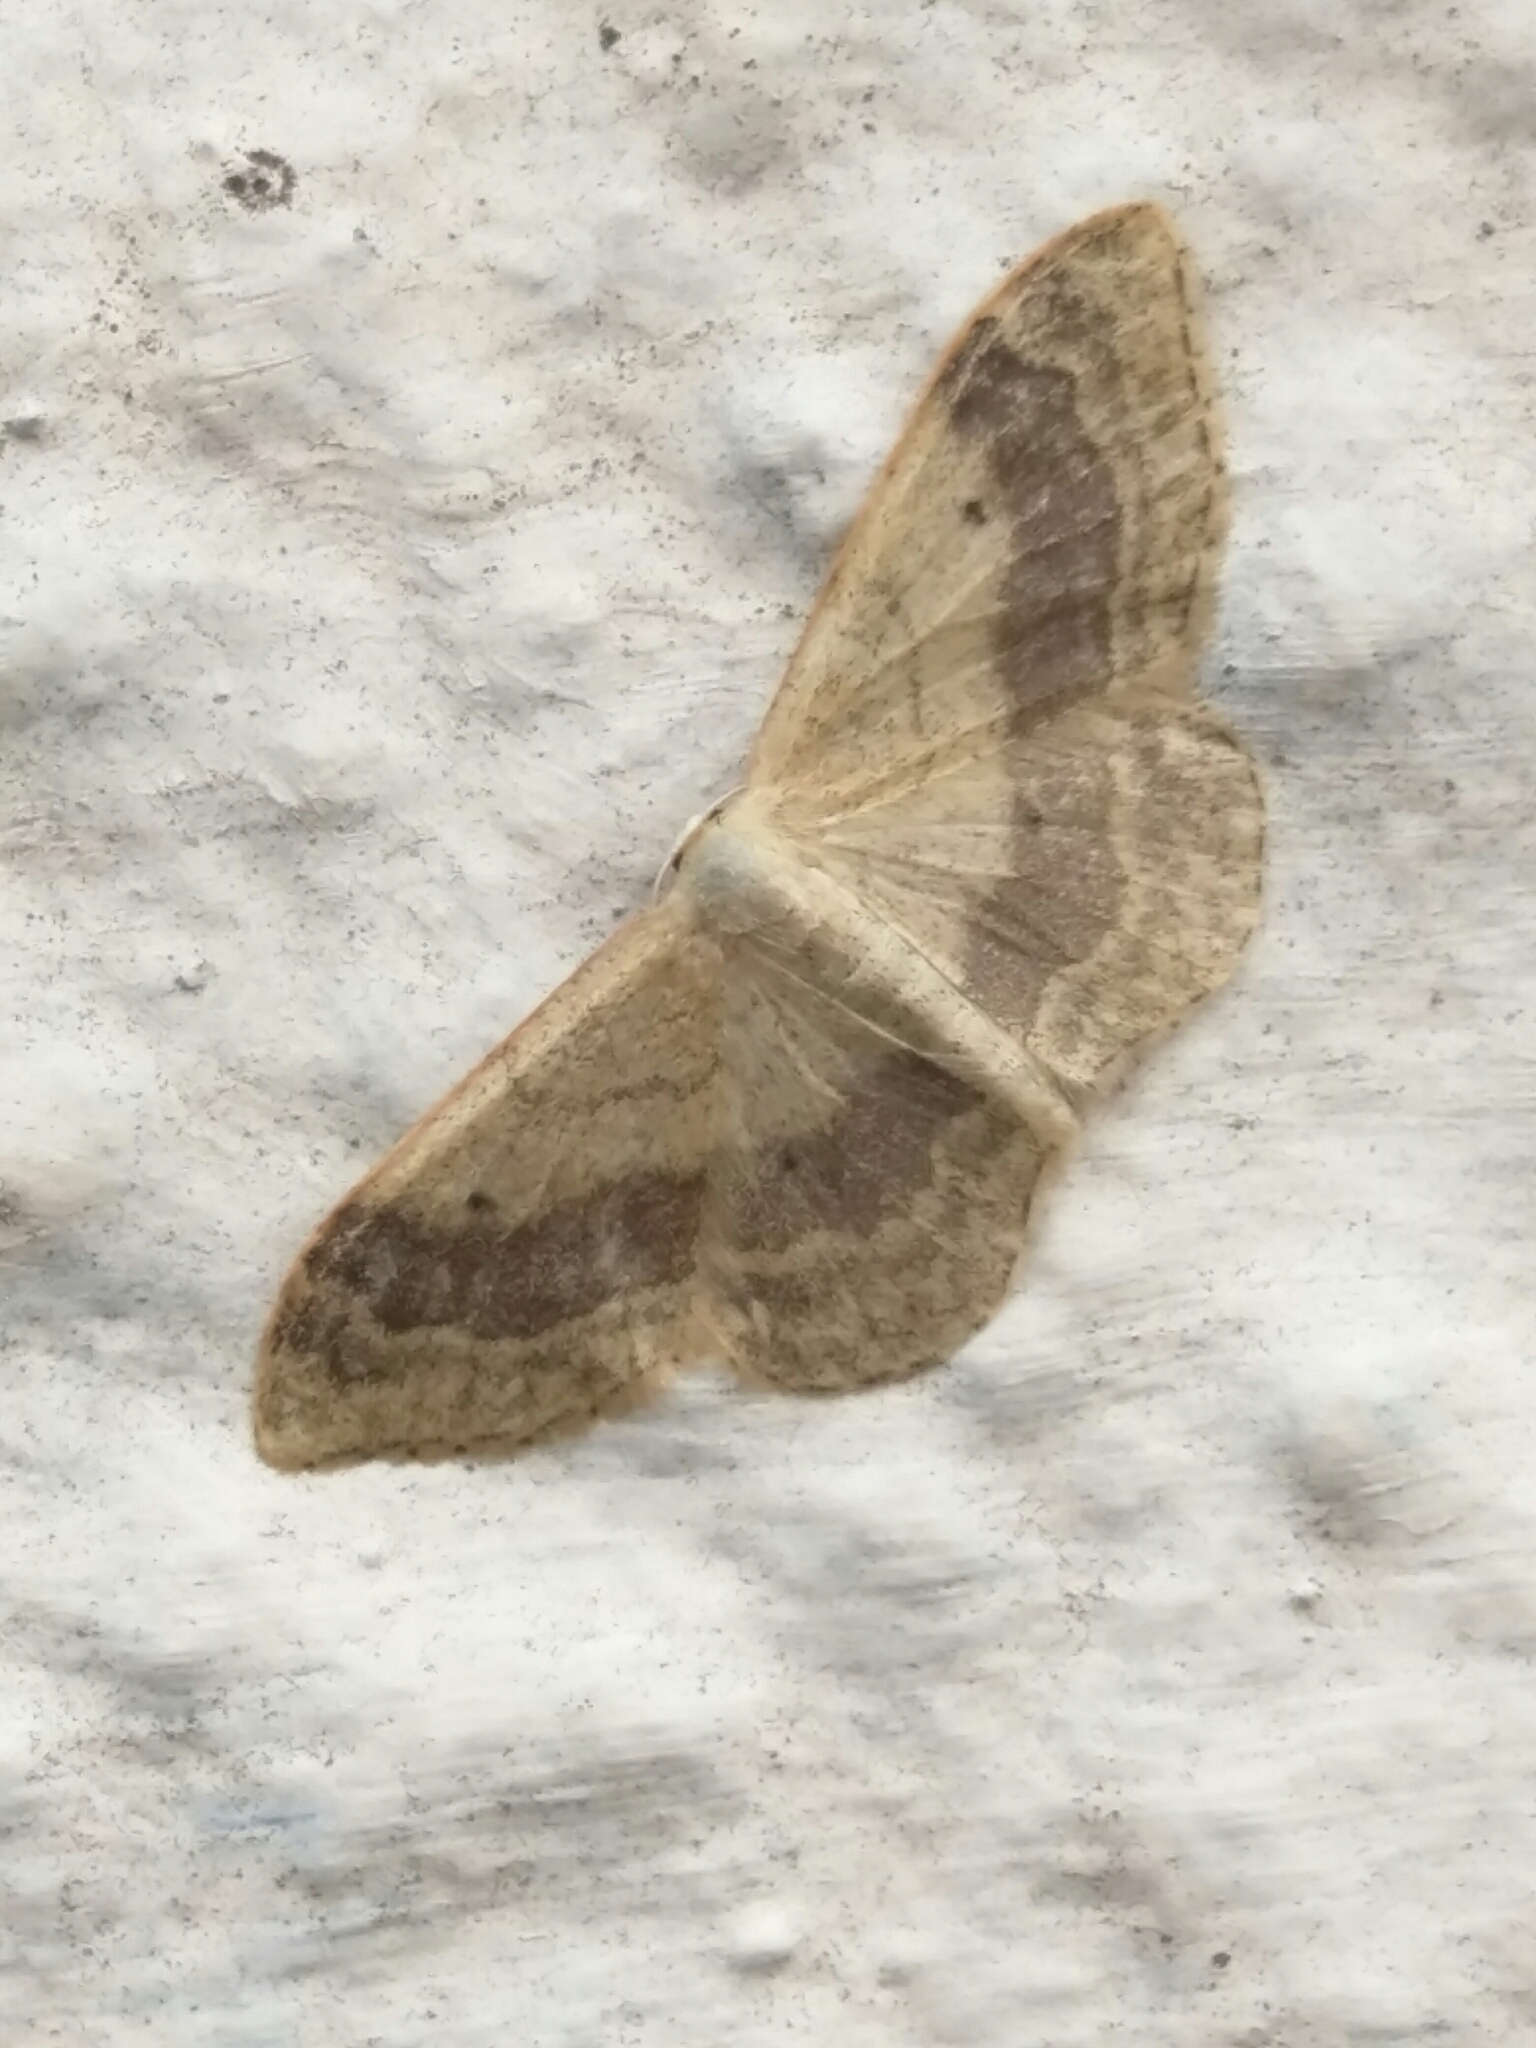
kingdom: Animalia
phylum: Arthropoda
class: Insecta
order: Lepidoptera
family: Geometridae
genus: Idaea
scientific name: Idaea aversata
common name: Riband wave
